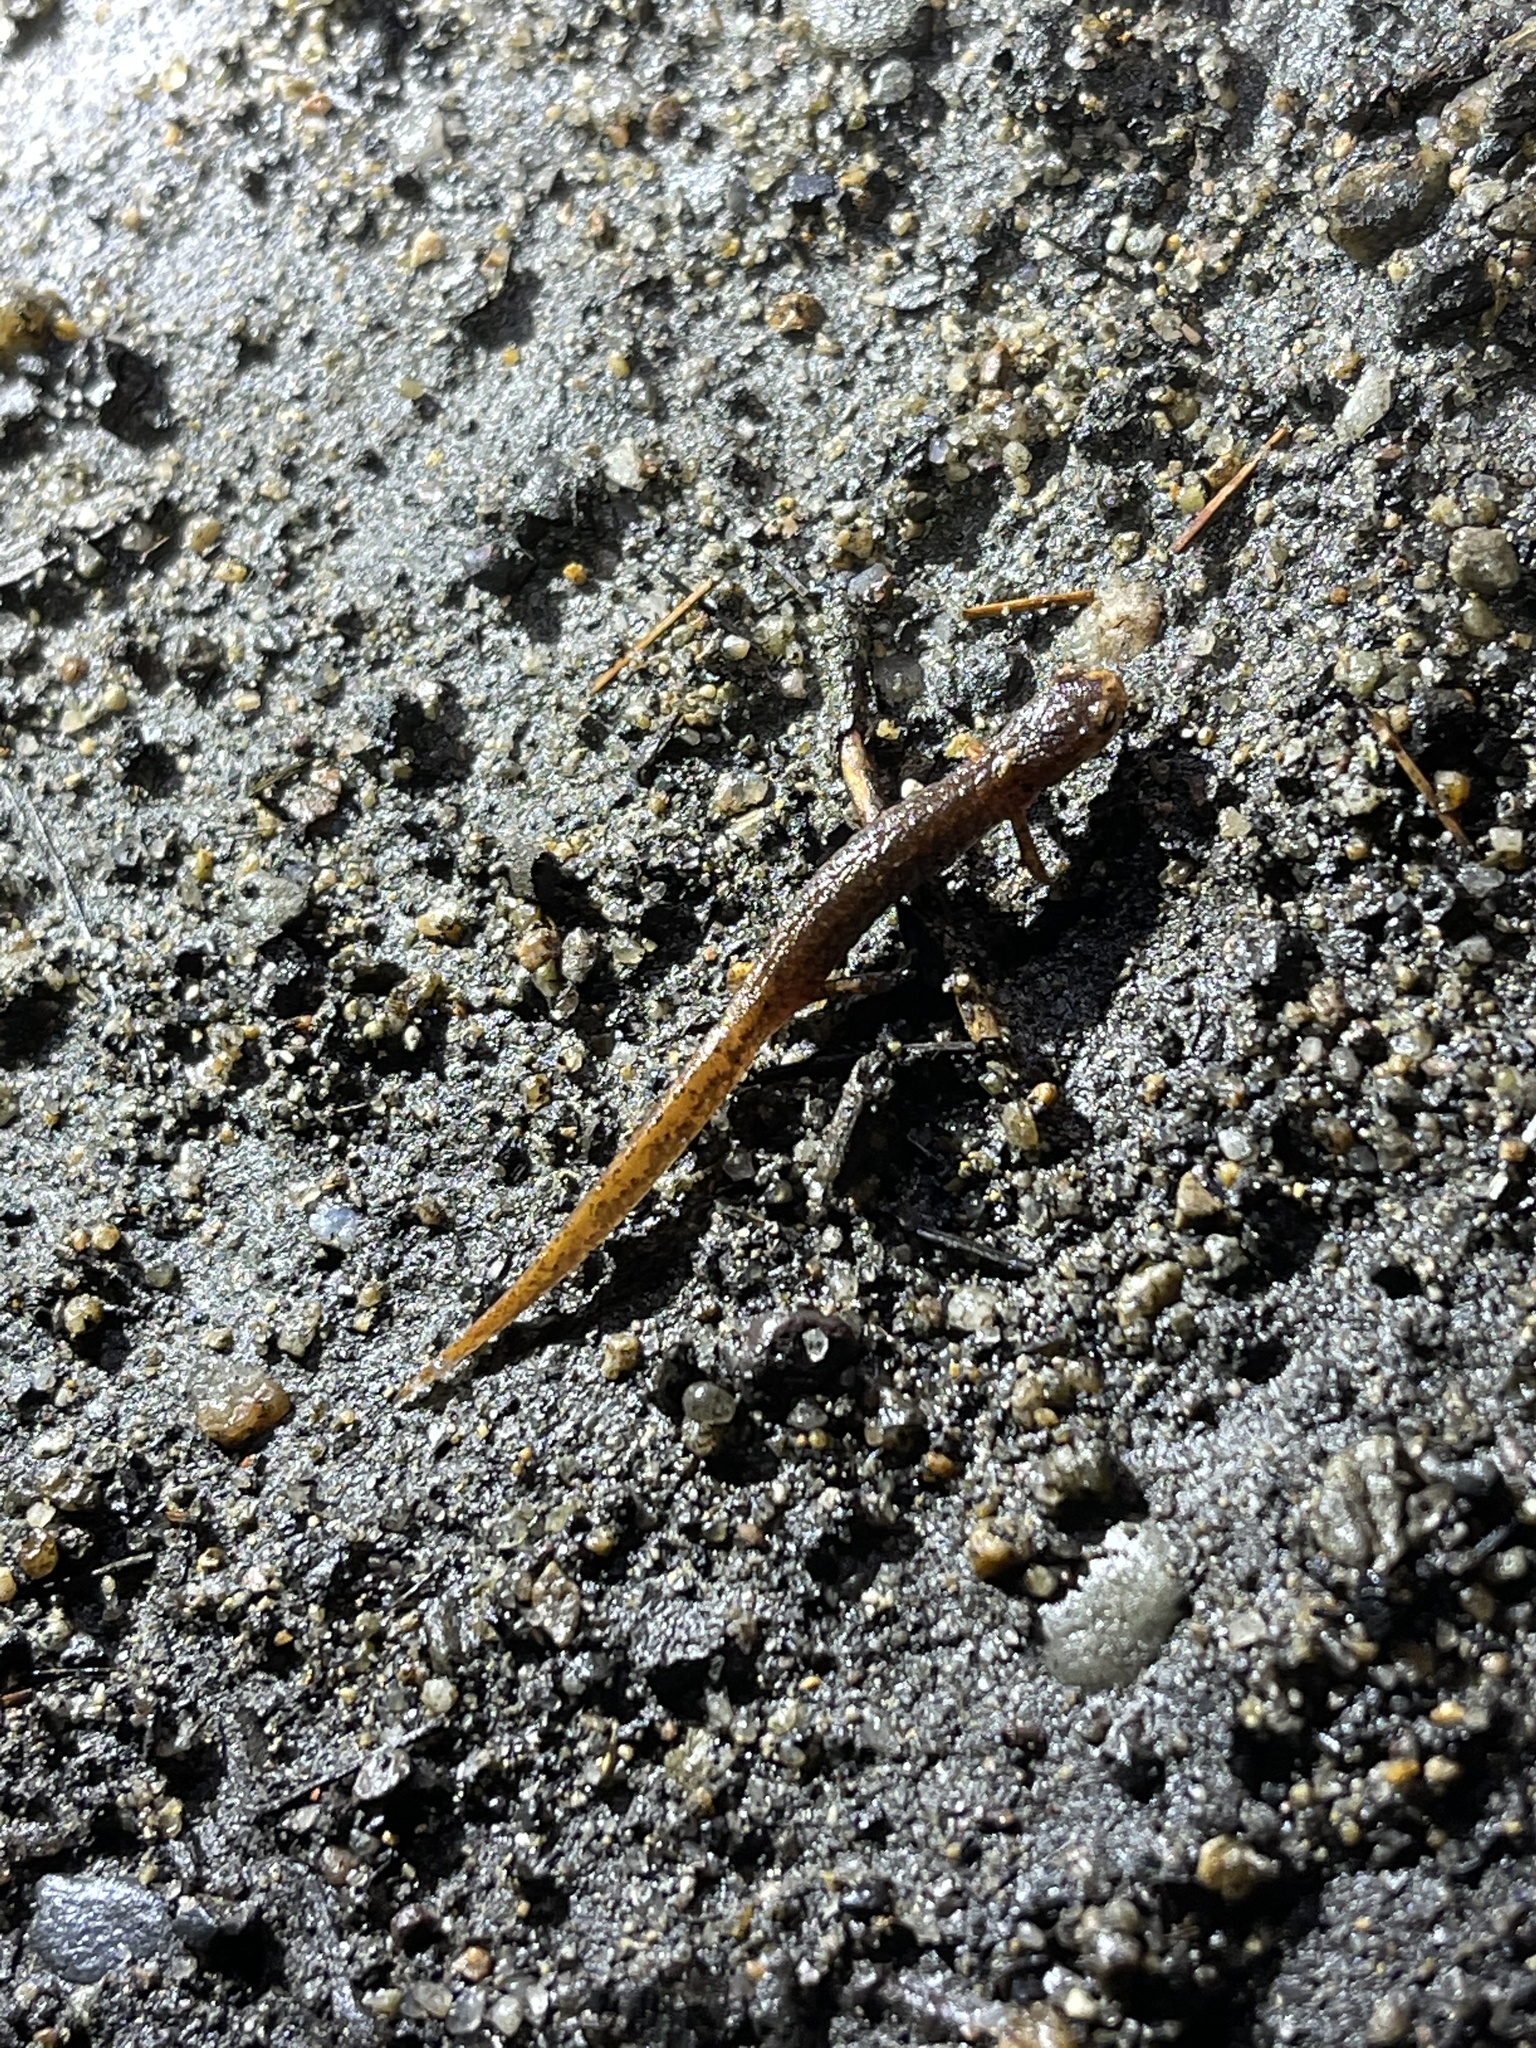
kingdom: Animalia
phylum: Chordata
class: Amphibia
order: Caudata
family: Plethodontidae
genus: Hemidactylium
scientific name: Hemidactylium scutatum
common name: Four-toed salamander
